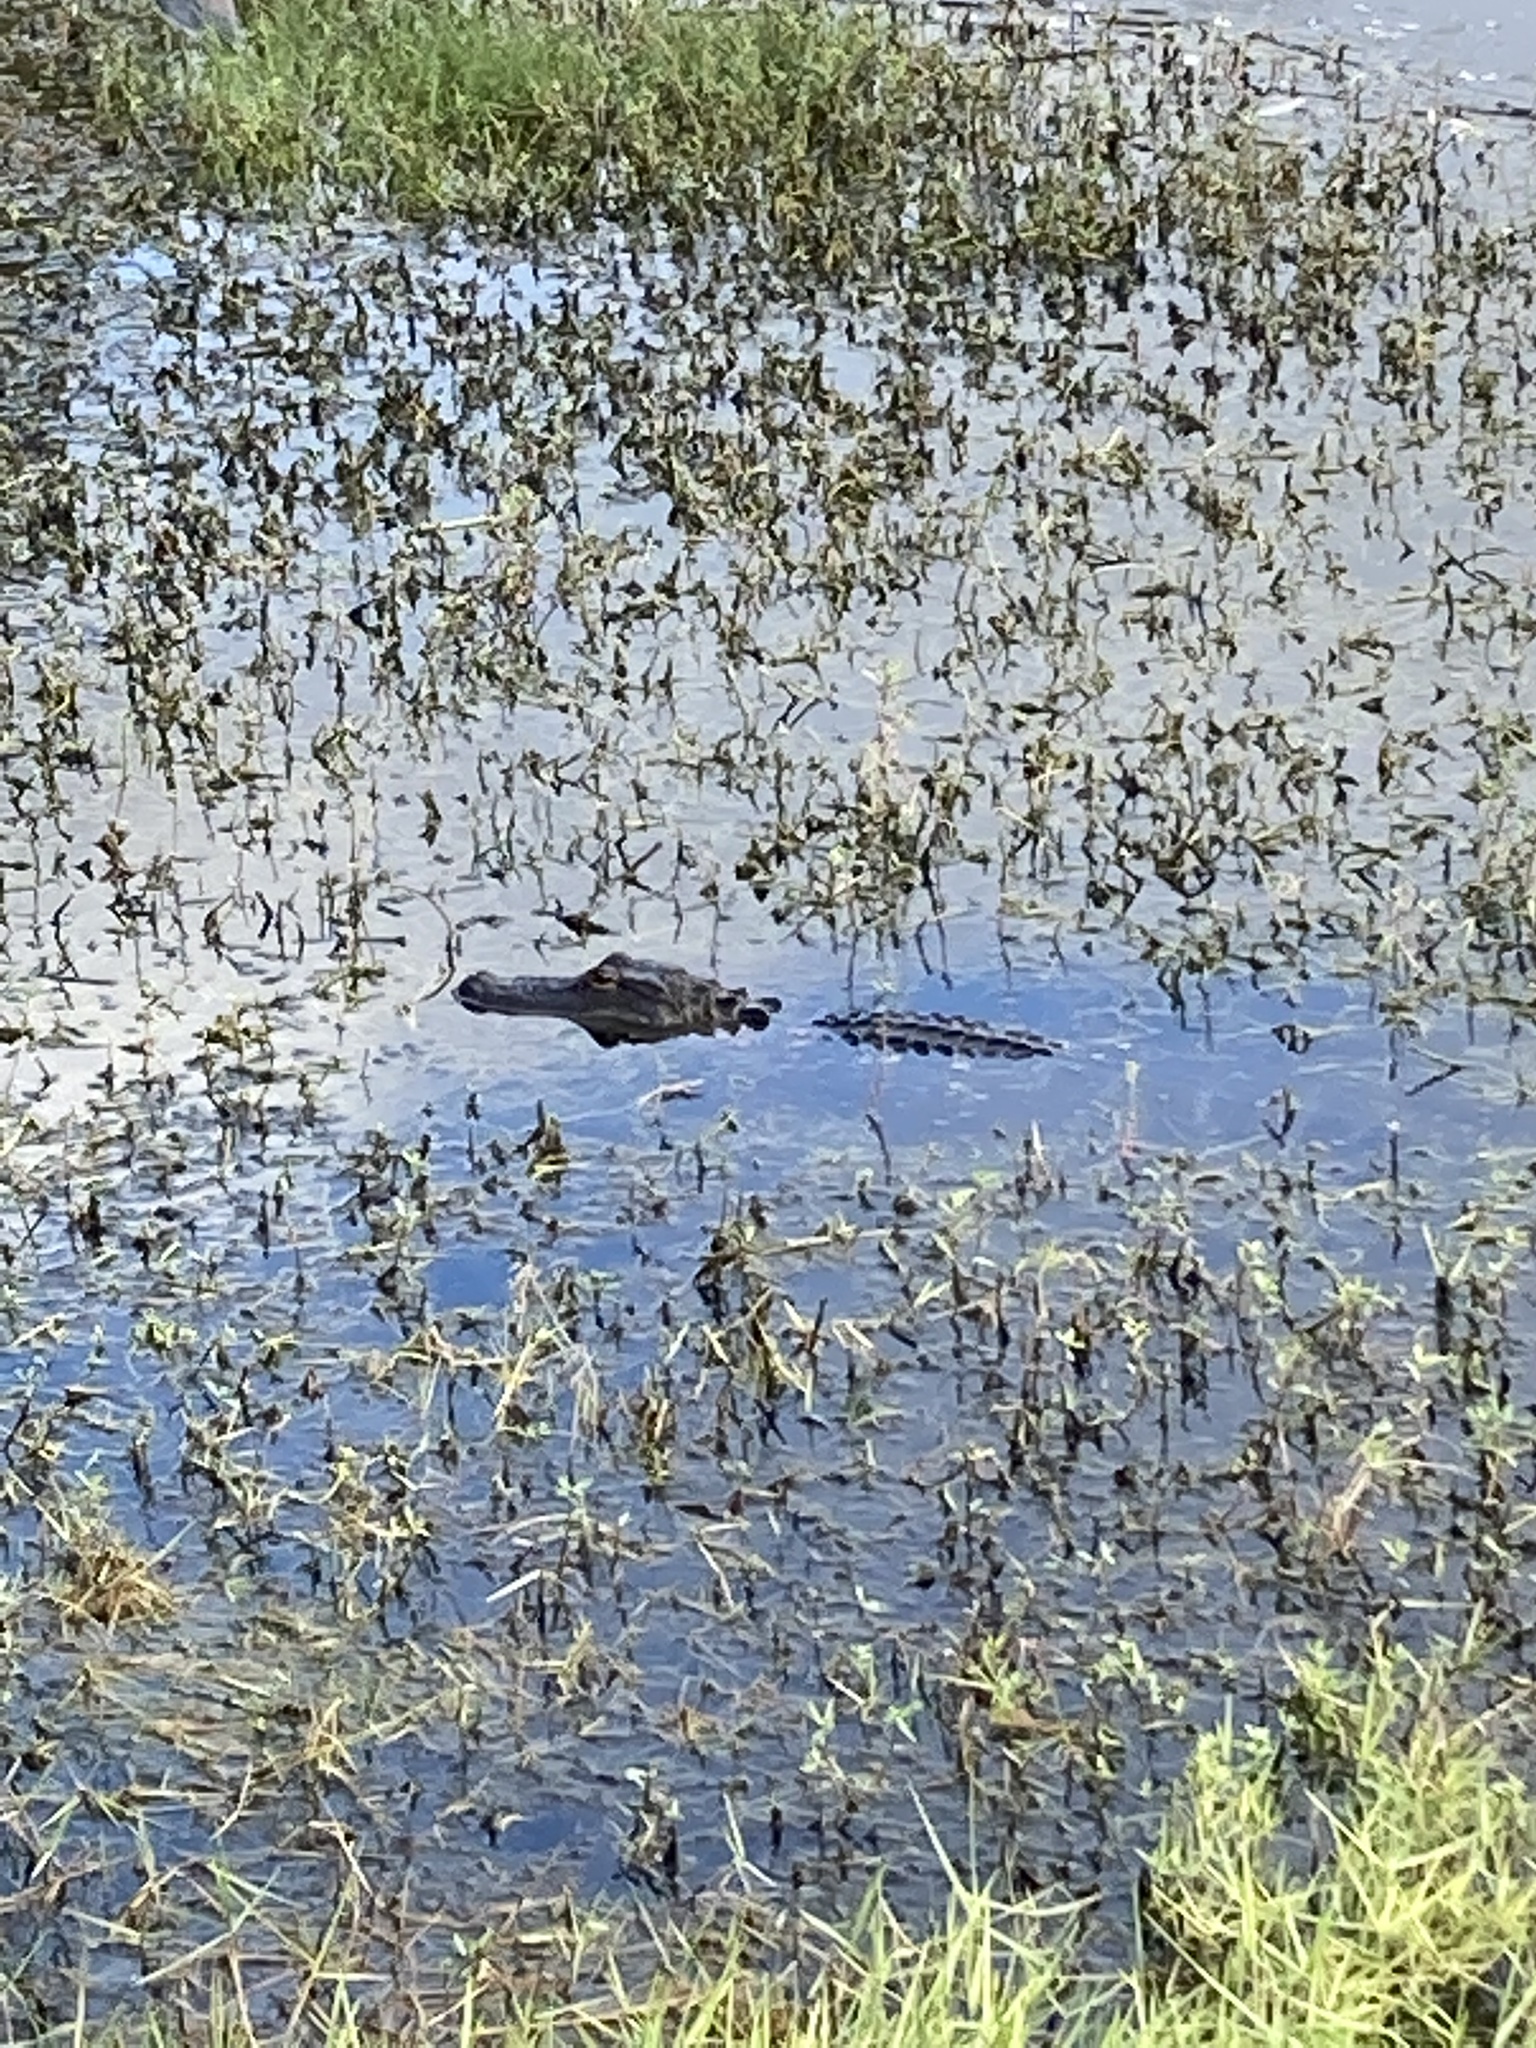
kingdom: Animalia
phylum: Chordata
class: Crocodylia
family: Alligatoridae
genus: Alligator
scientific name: Alligator mississippiensis
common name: American alligator
